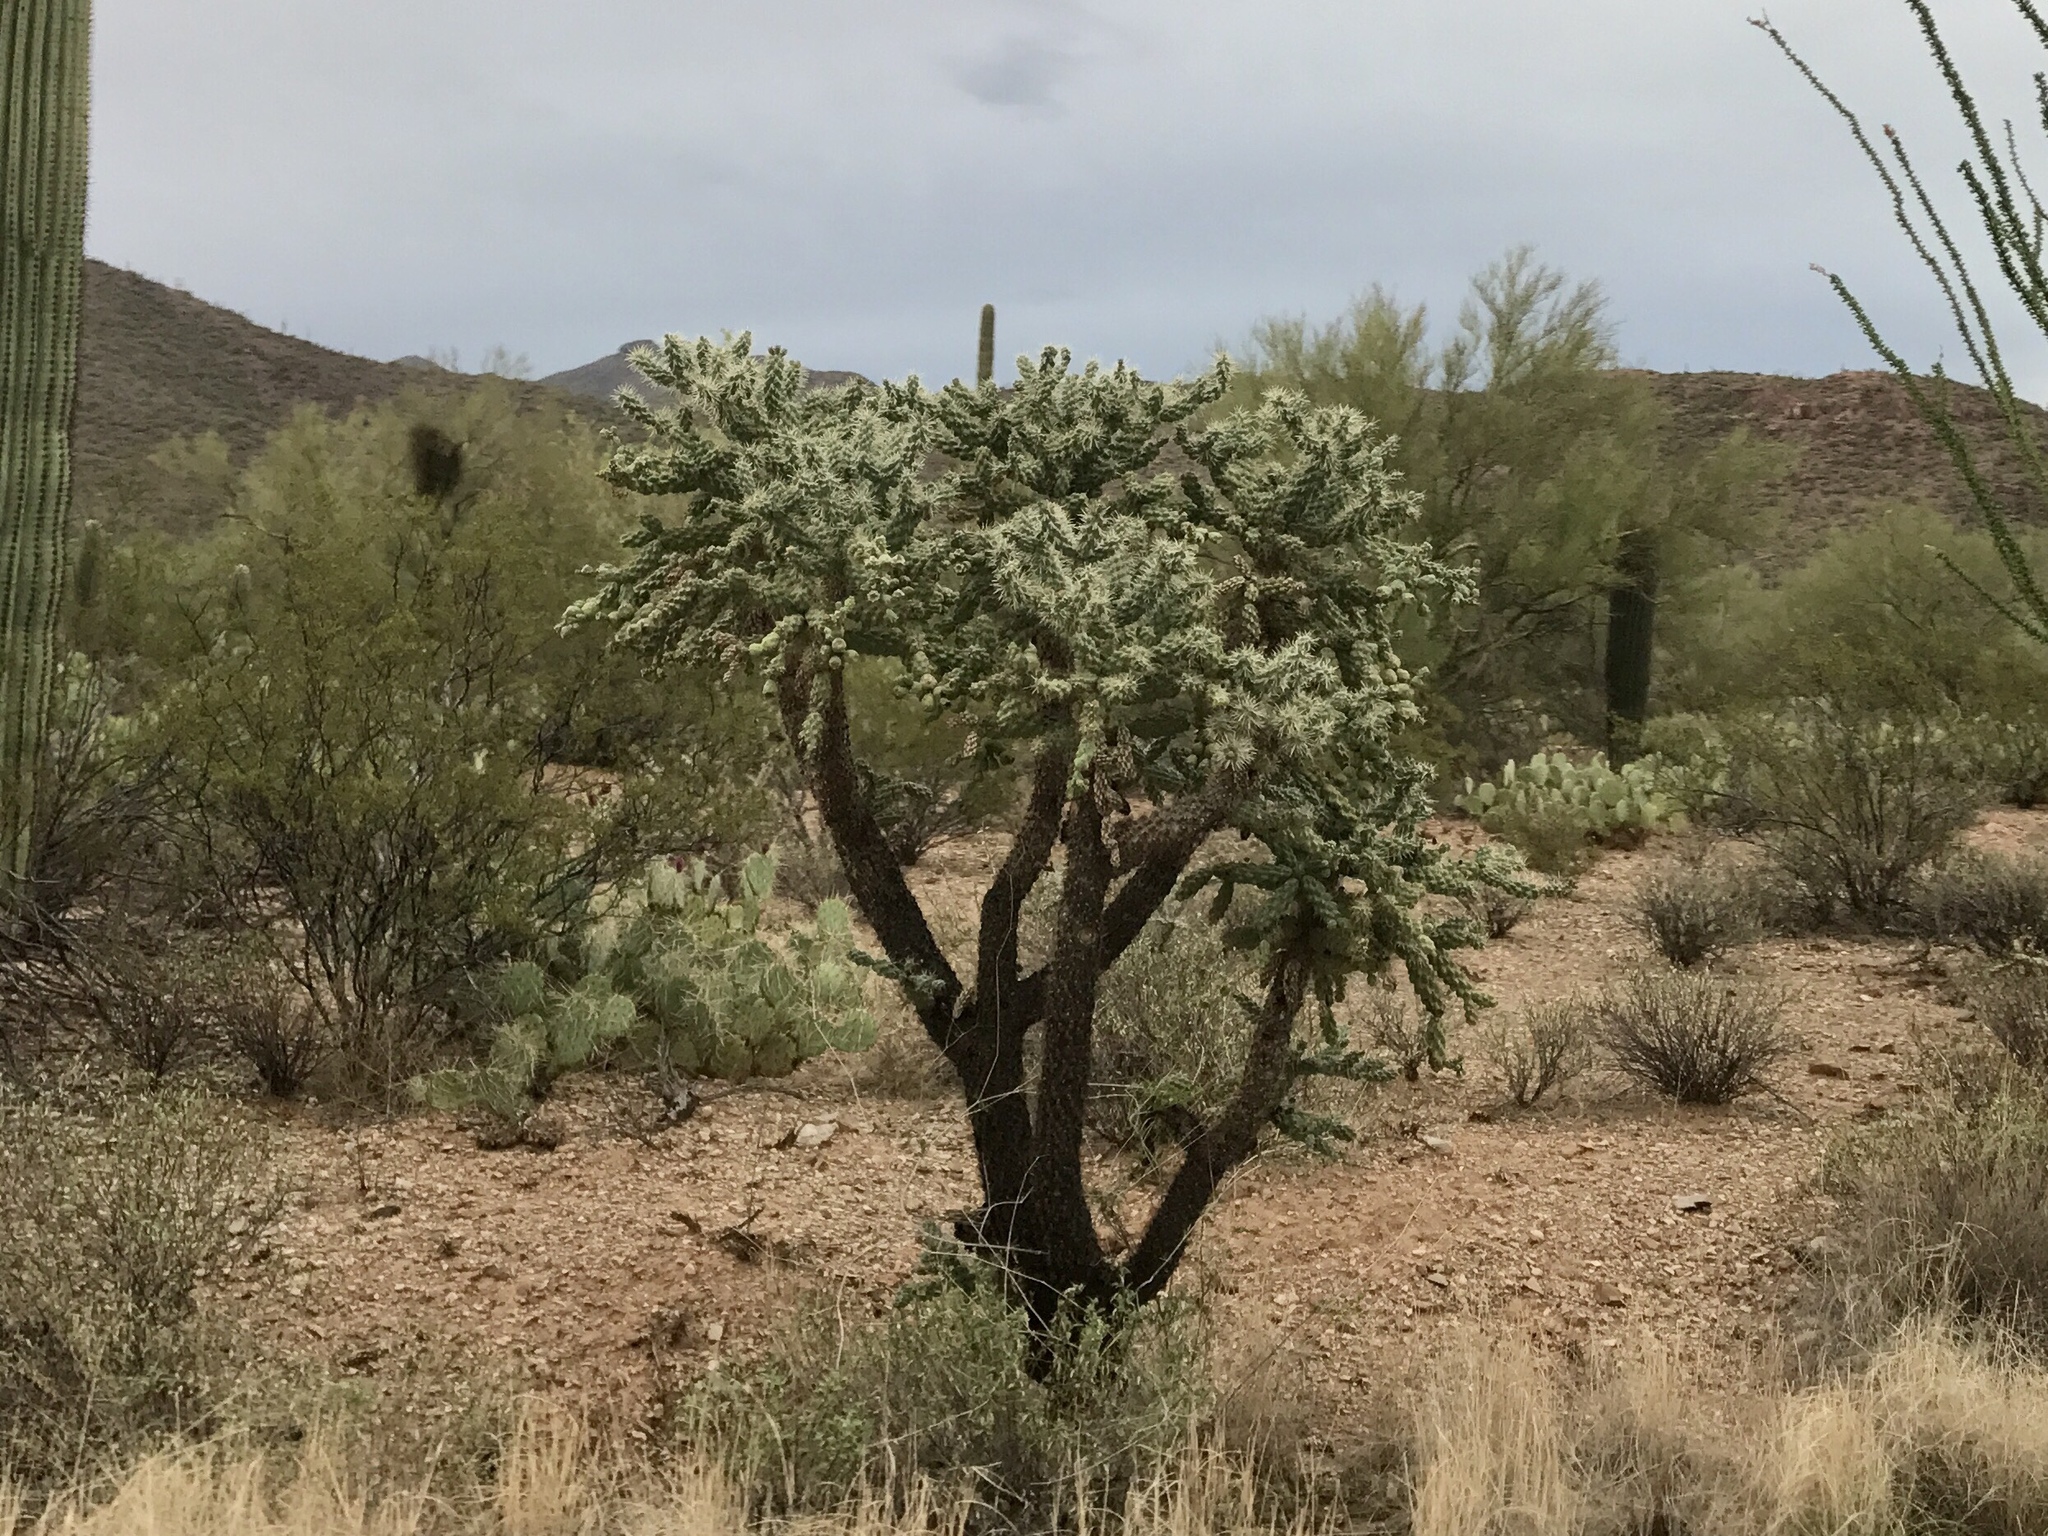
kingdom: Plantae
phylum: Tracheophyta
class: Magnoliopsida
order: Caryophyllales
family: Cactaceae
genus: Cylindropuntia
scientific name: Cylindropuntia fulgida
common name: Jumping cholla
